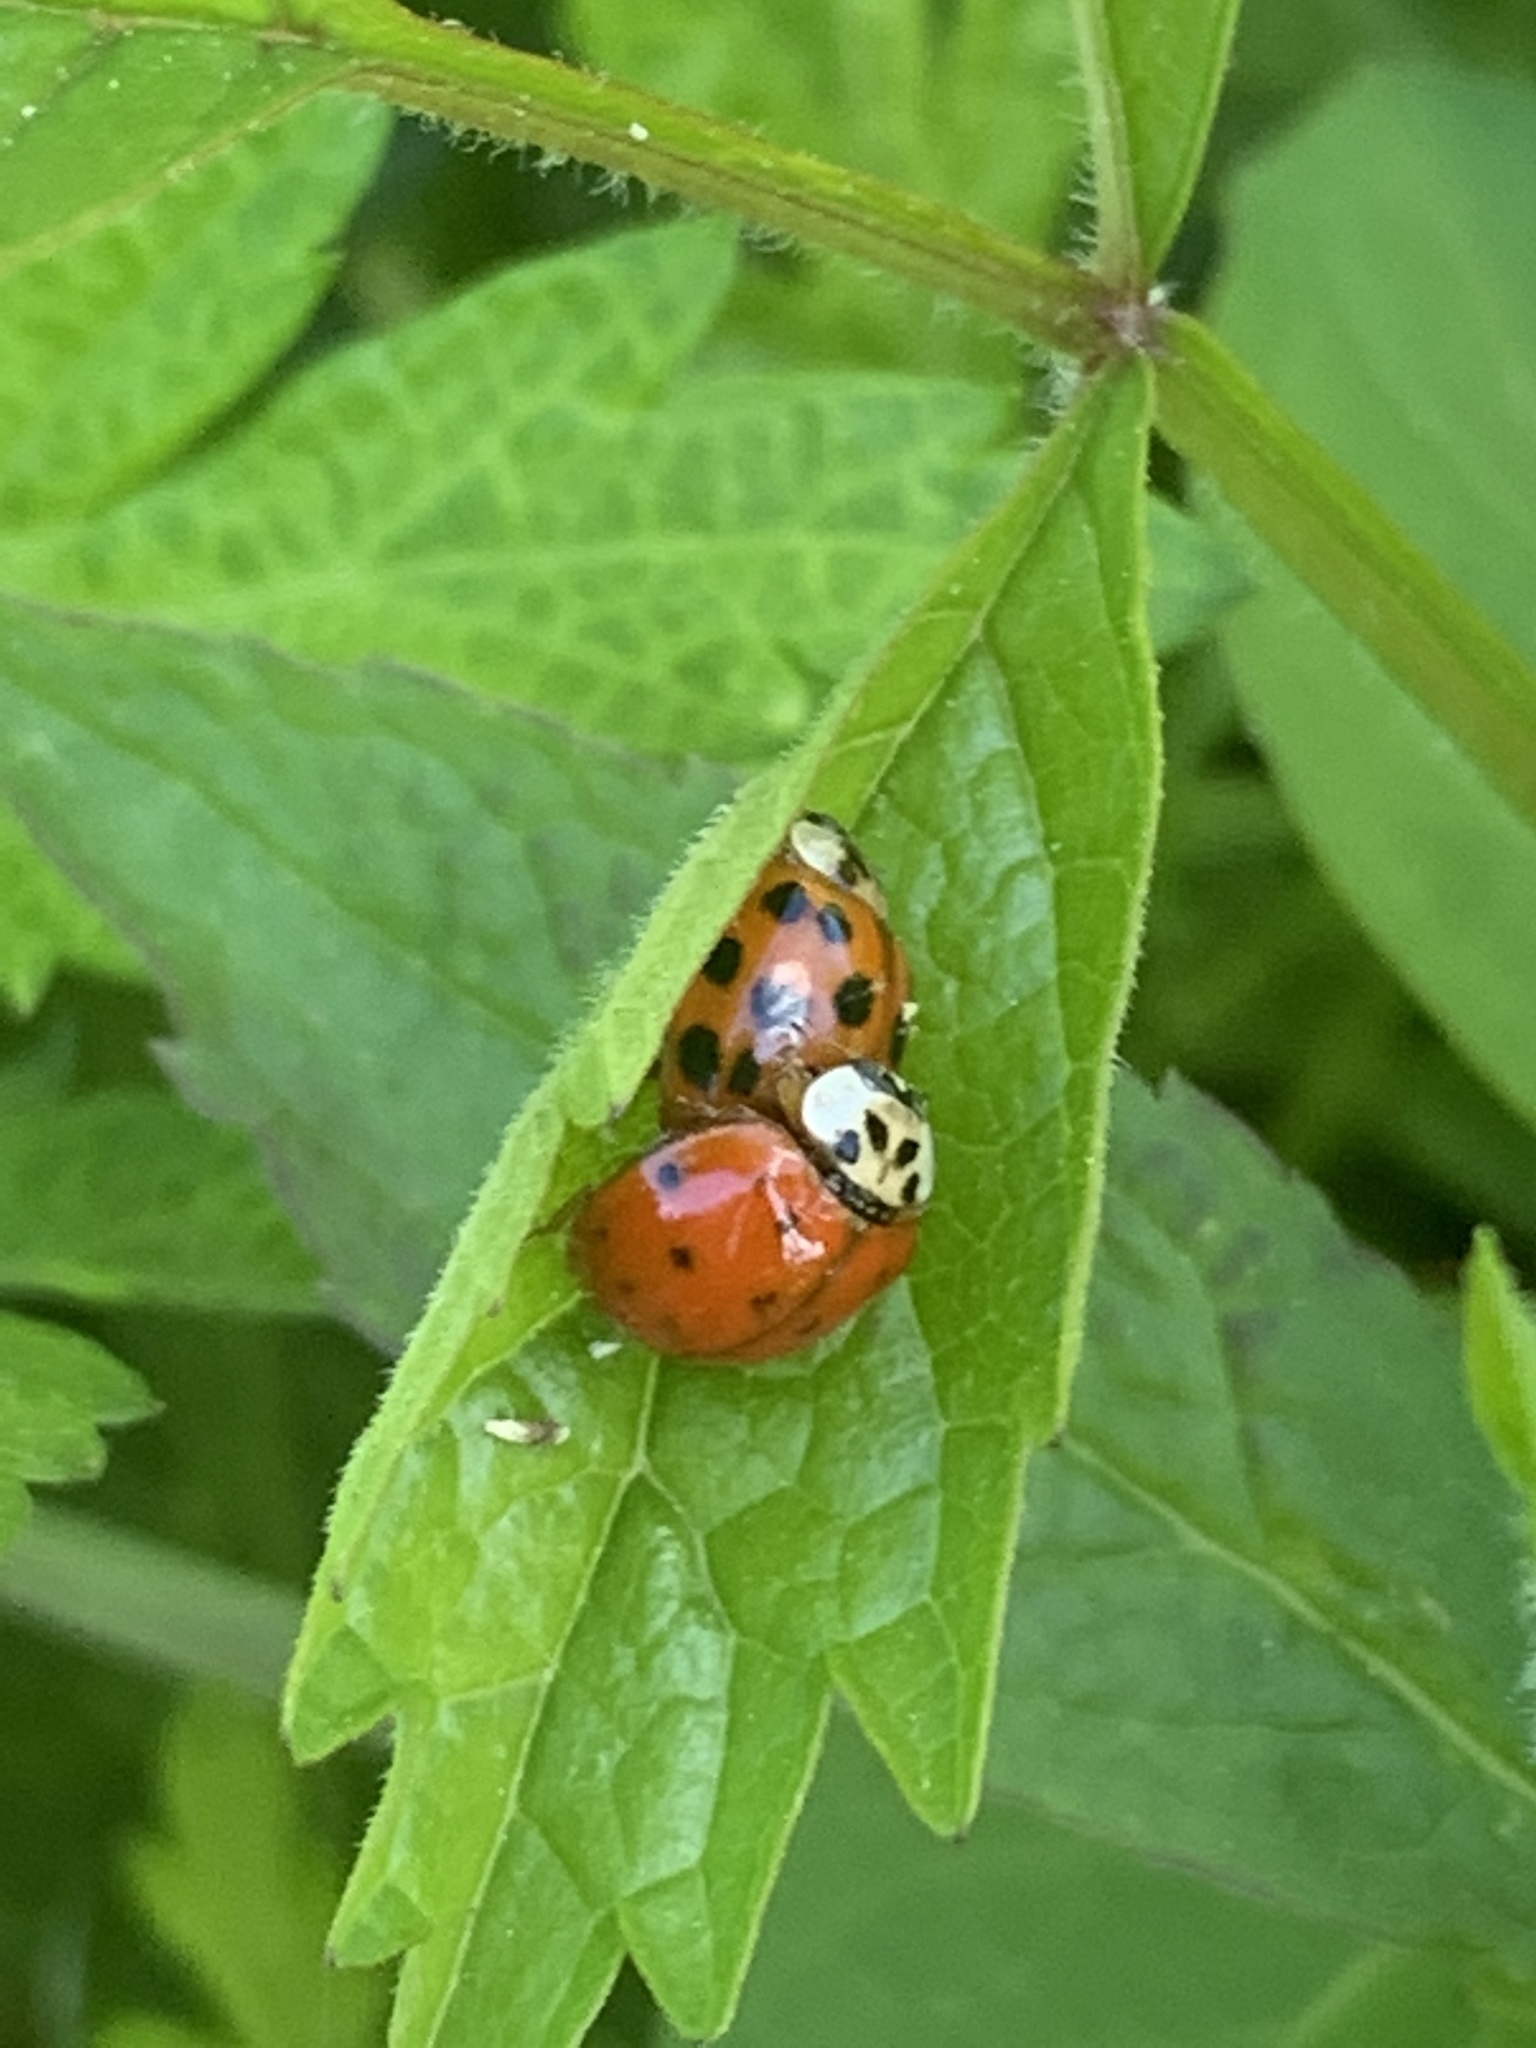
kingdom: Animalia
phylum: Arthropoda
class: Insecta
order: Coleoptera
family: Coccinellidae
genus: Harmonia
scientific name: Harmonia axyridis
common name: Harlequin ladybird
